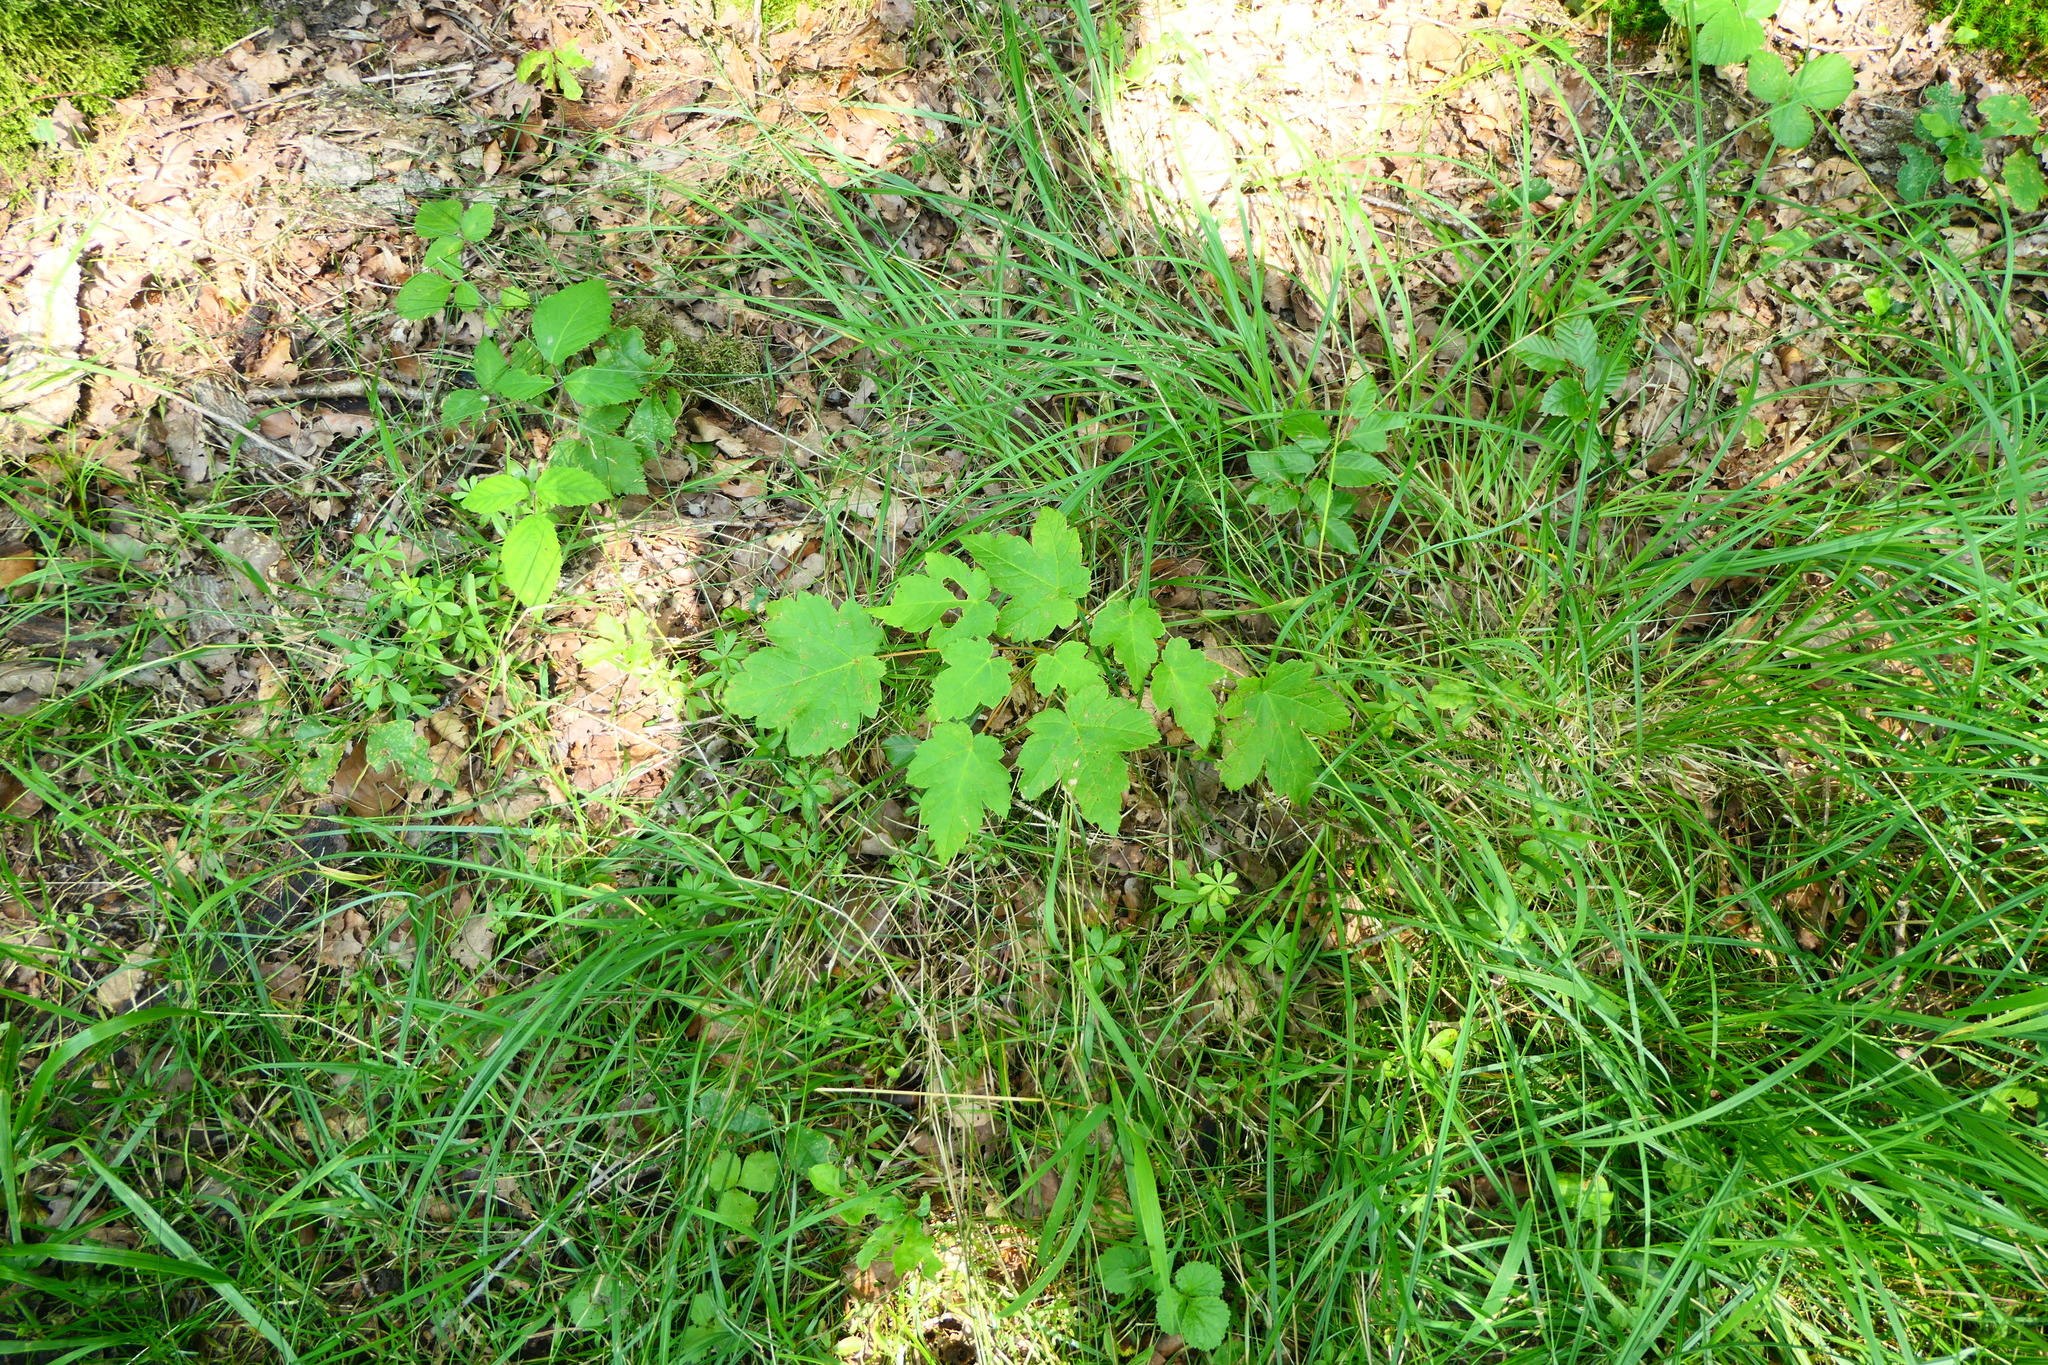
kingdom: Plantae
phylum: Tracheophyta
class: Magnoliopsida
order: Sapindales
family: Sapindaceae
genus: Acer
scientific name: Acer pseudoplatanus
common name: Sycamore
